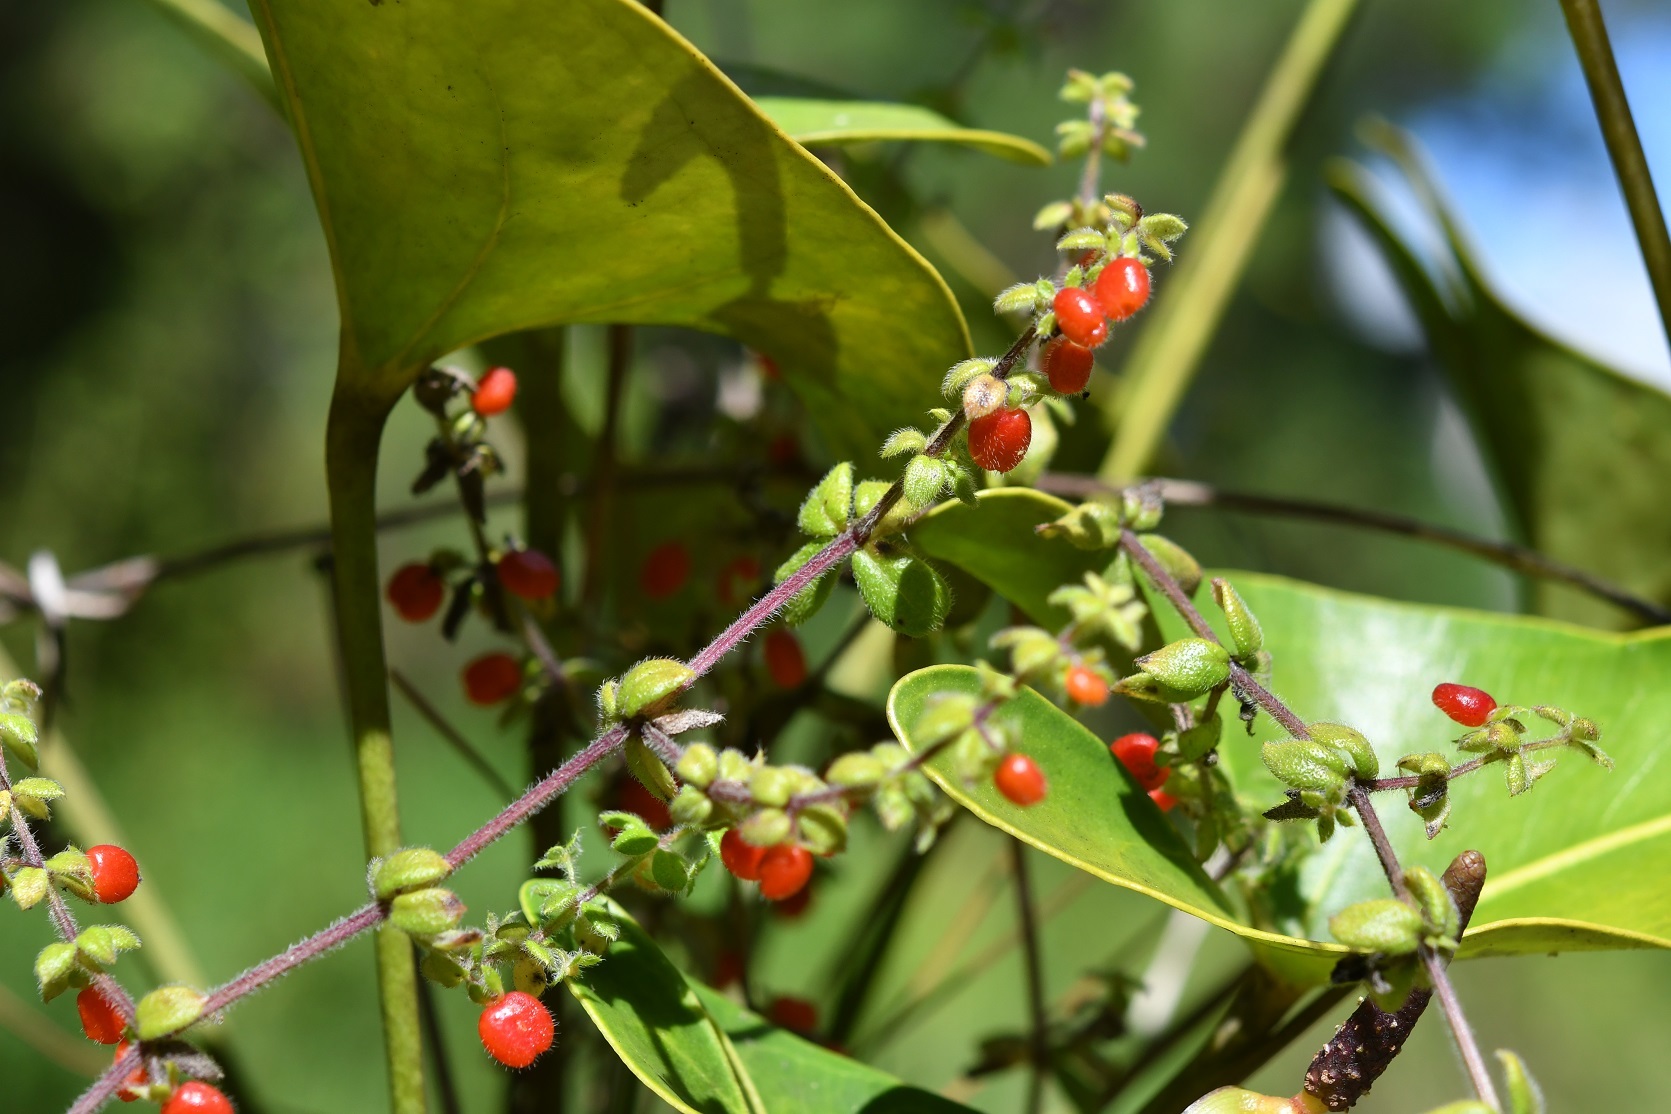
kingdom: Plantae
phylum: Tracheophyta
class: Magnoliopsida
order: Gentianales
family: Rubiaceae
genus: Galium
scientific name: Galium hypocarpium
